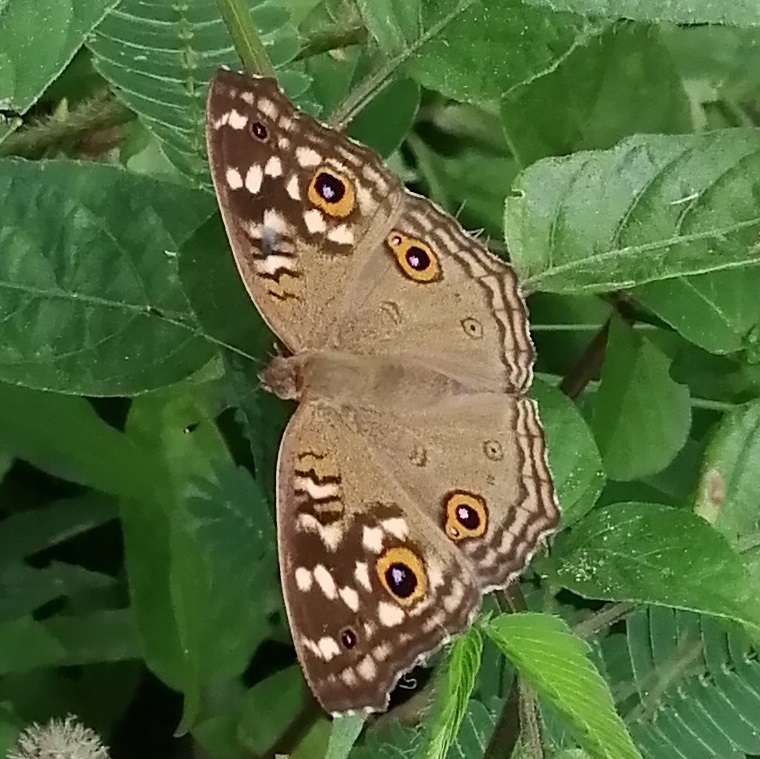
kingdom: Animalia
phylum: Arthropoda
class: Insecta
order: Lepidoptera
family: Nymphalidae
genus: Junonia
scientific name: Junonia lemonias
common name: Lemon pansy
